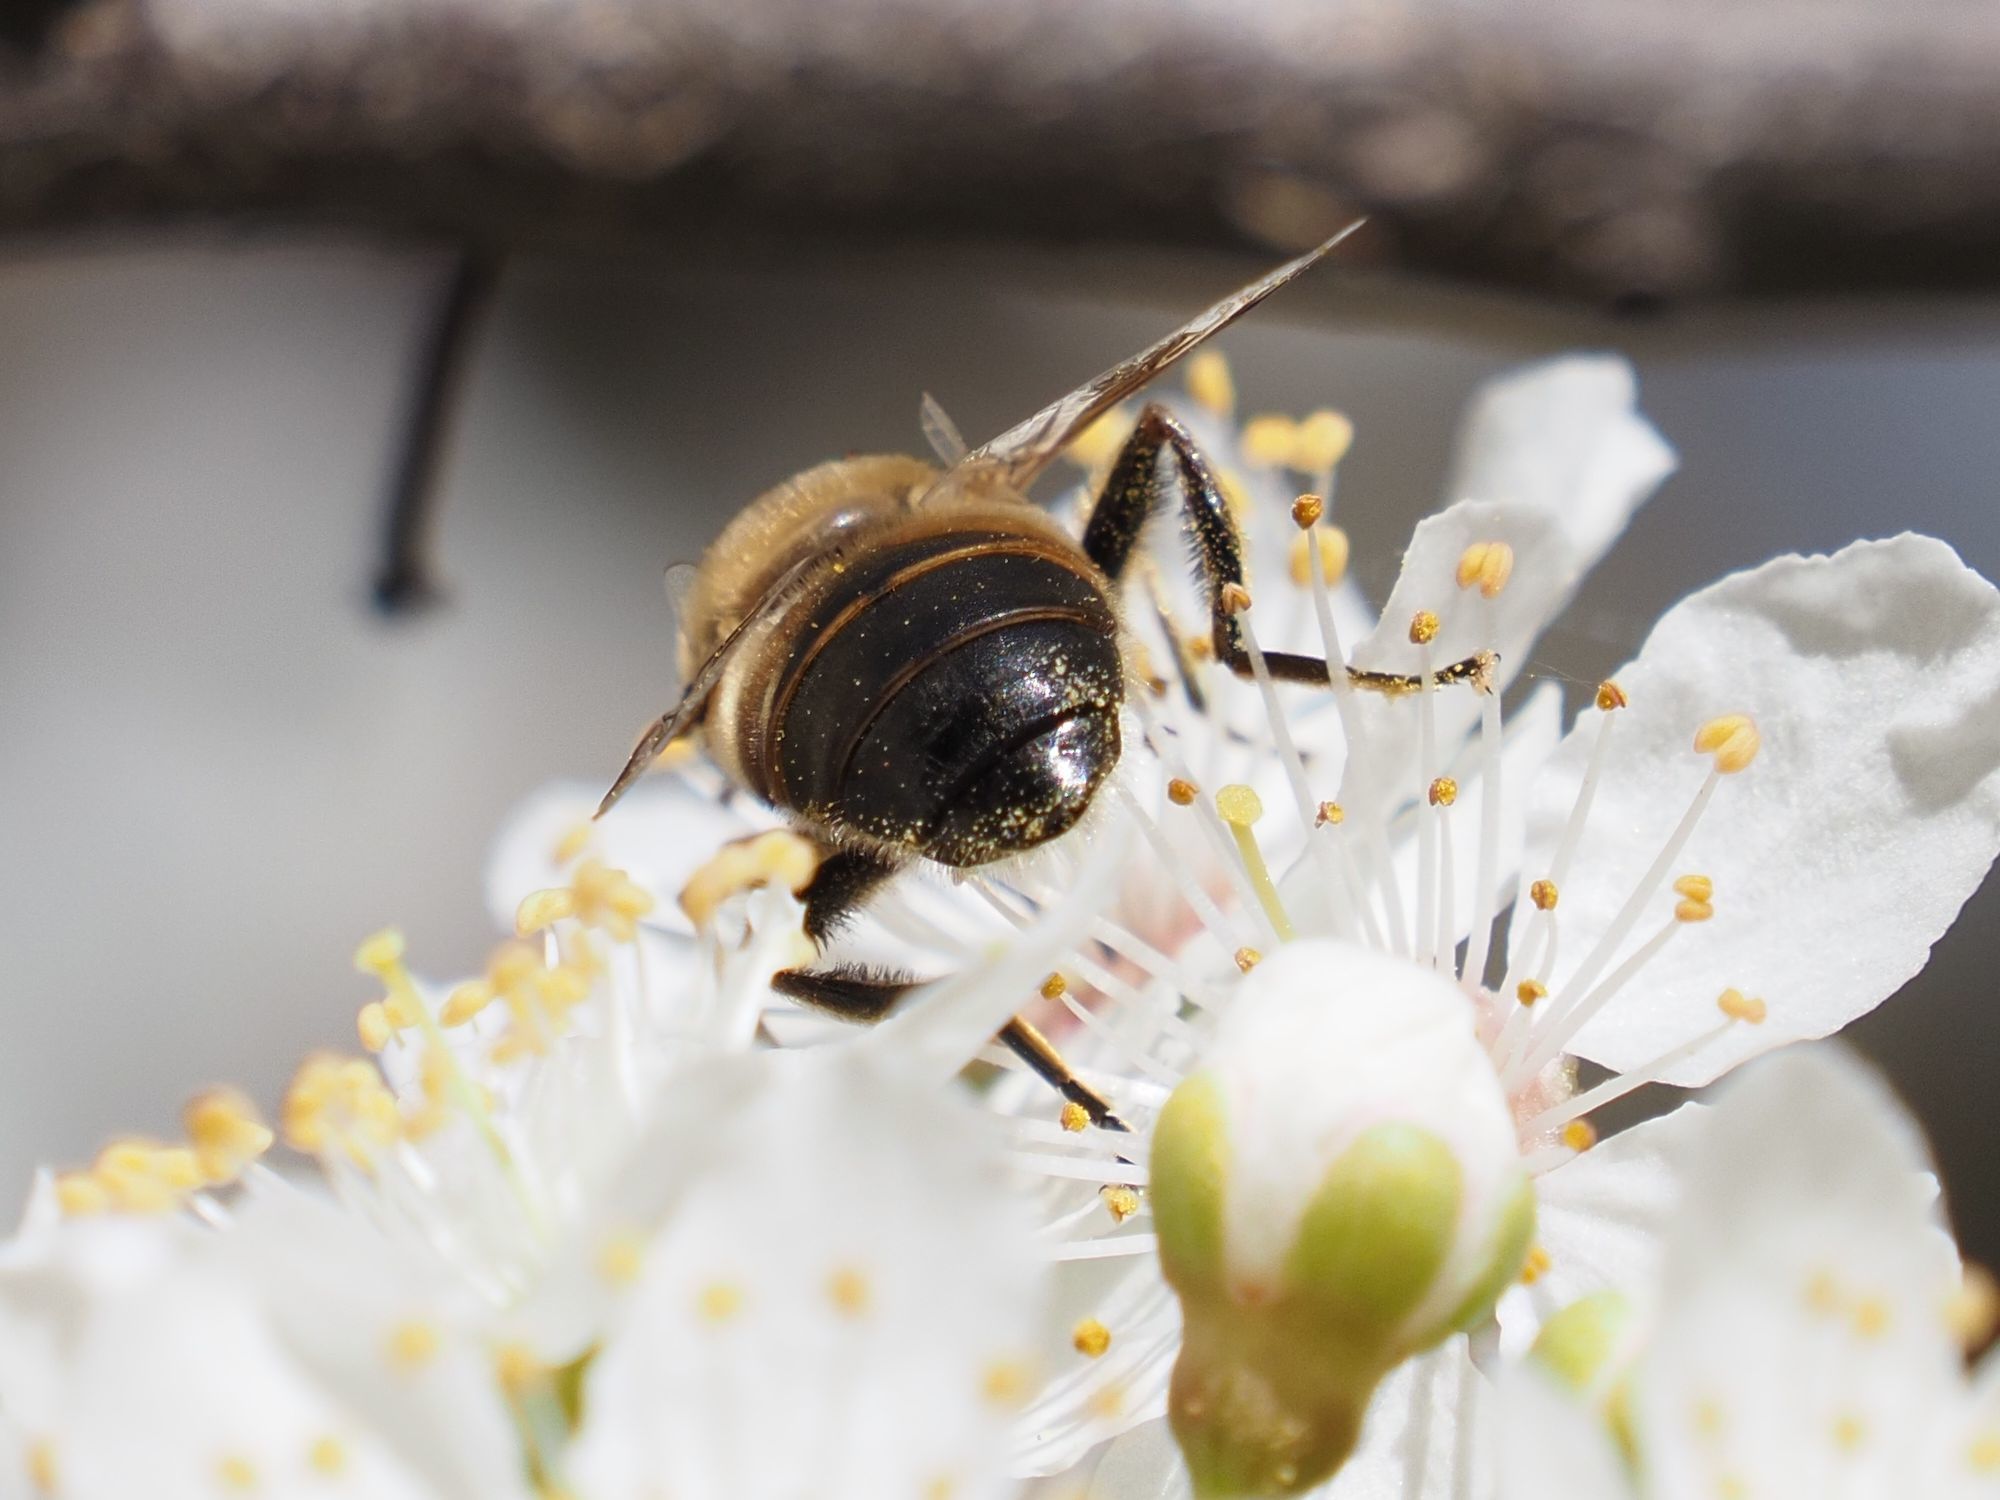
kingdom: Animalia
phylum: Arthropoda
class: Insecta
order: Diptera
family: Syrphidae
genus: Eristalis
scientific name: Eristalis tenax
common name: Drone fly
